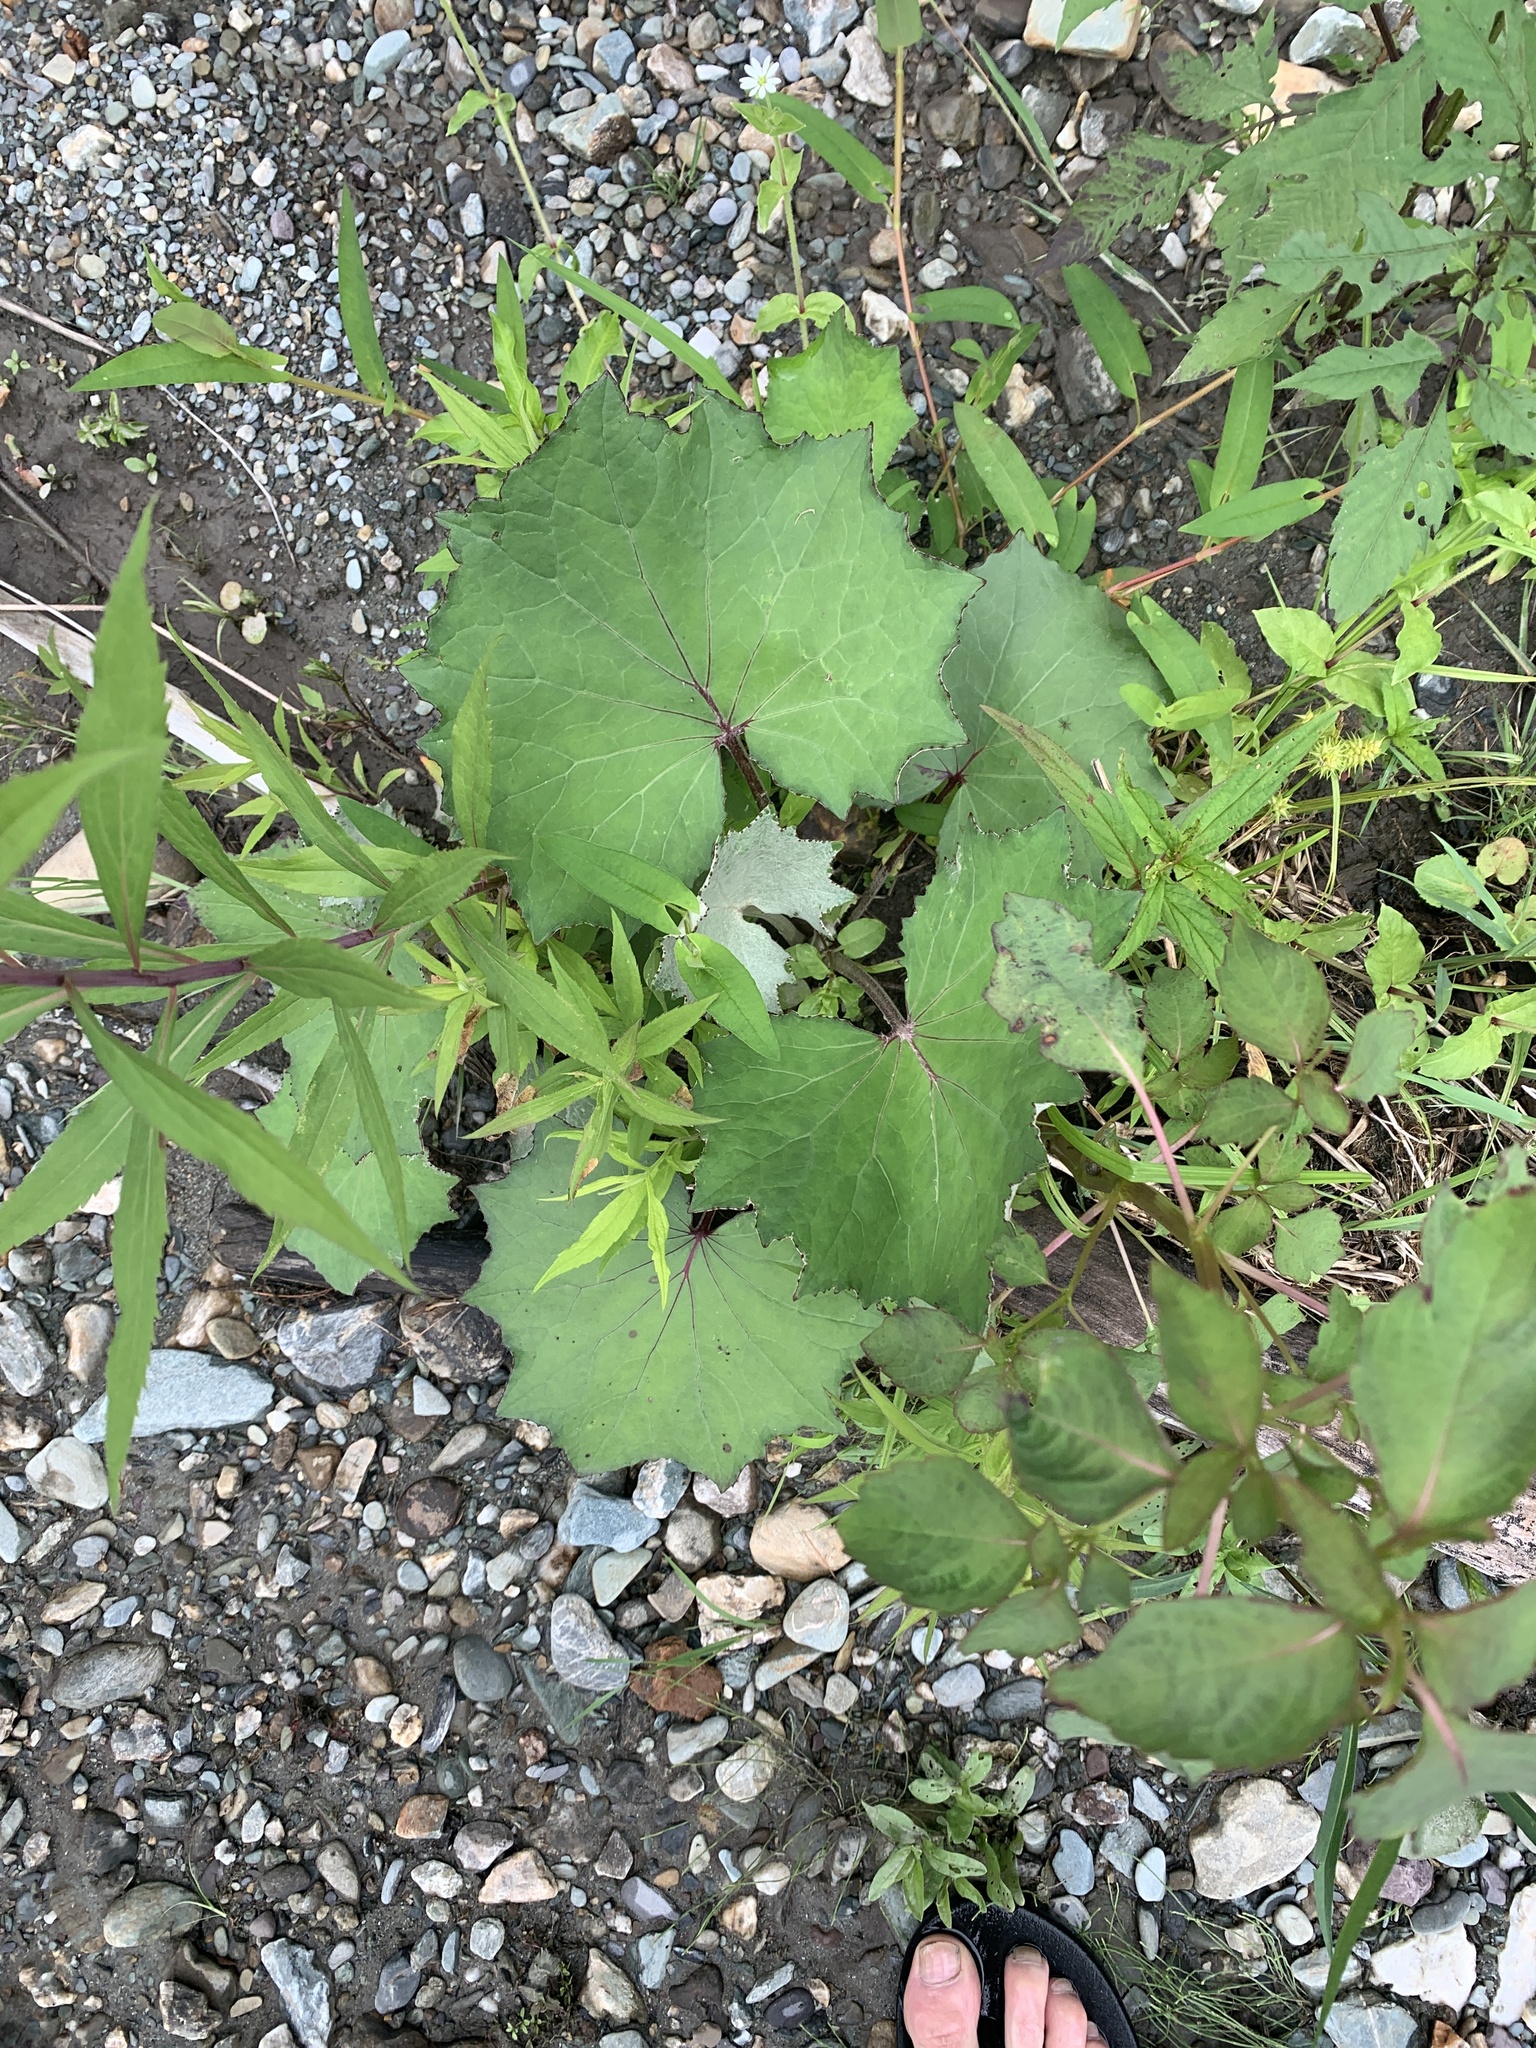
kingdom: Plantae
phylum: Tracheophyta
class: Magnoliopsida
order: Asterales
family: Asteraceae
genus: Tussilago
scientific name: Tussilago farfara
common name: Coltsfoot
